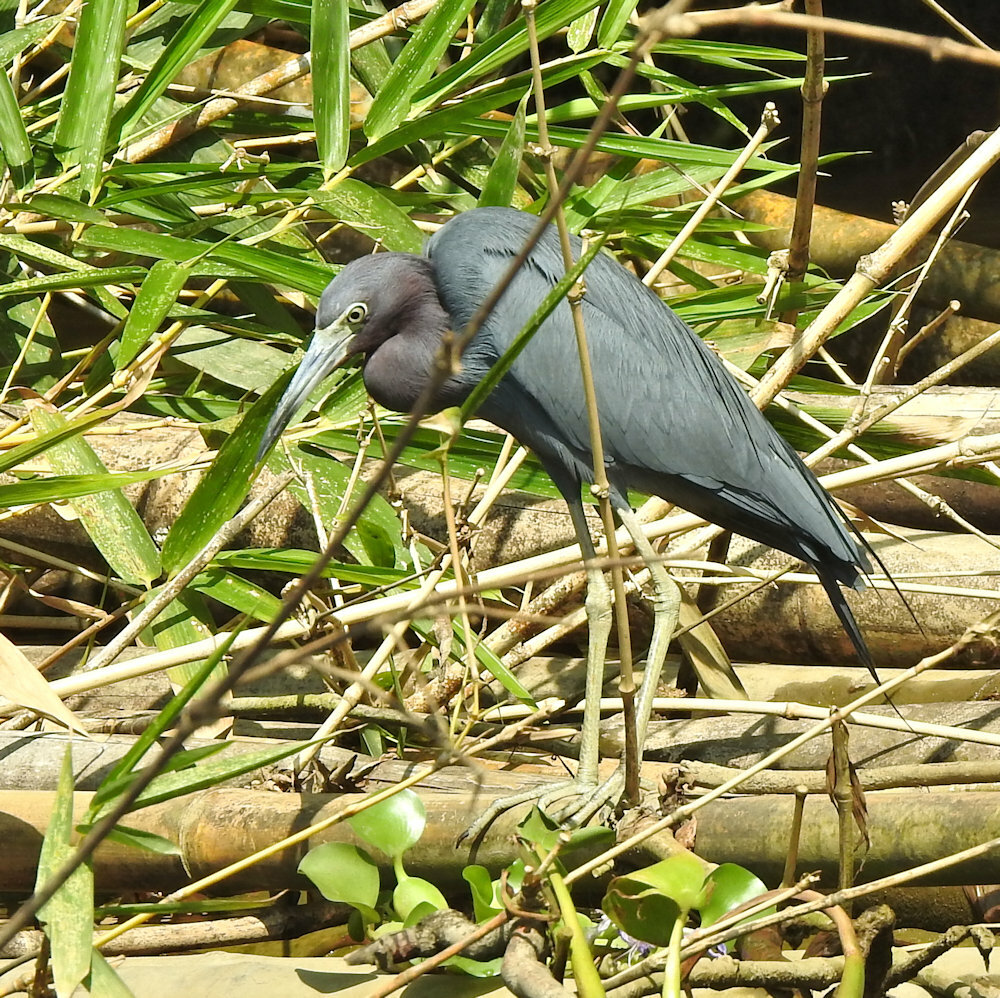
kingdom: Animalia
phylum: Chordata
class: Aves
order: Pelecaniformes
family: Ardeidae
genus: Egretta
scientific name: Egretta caerulea
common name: Little blue heron
